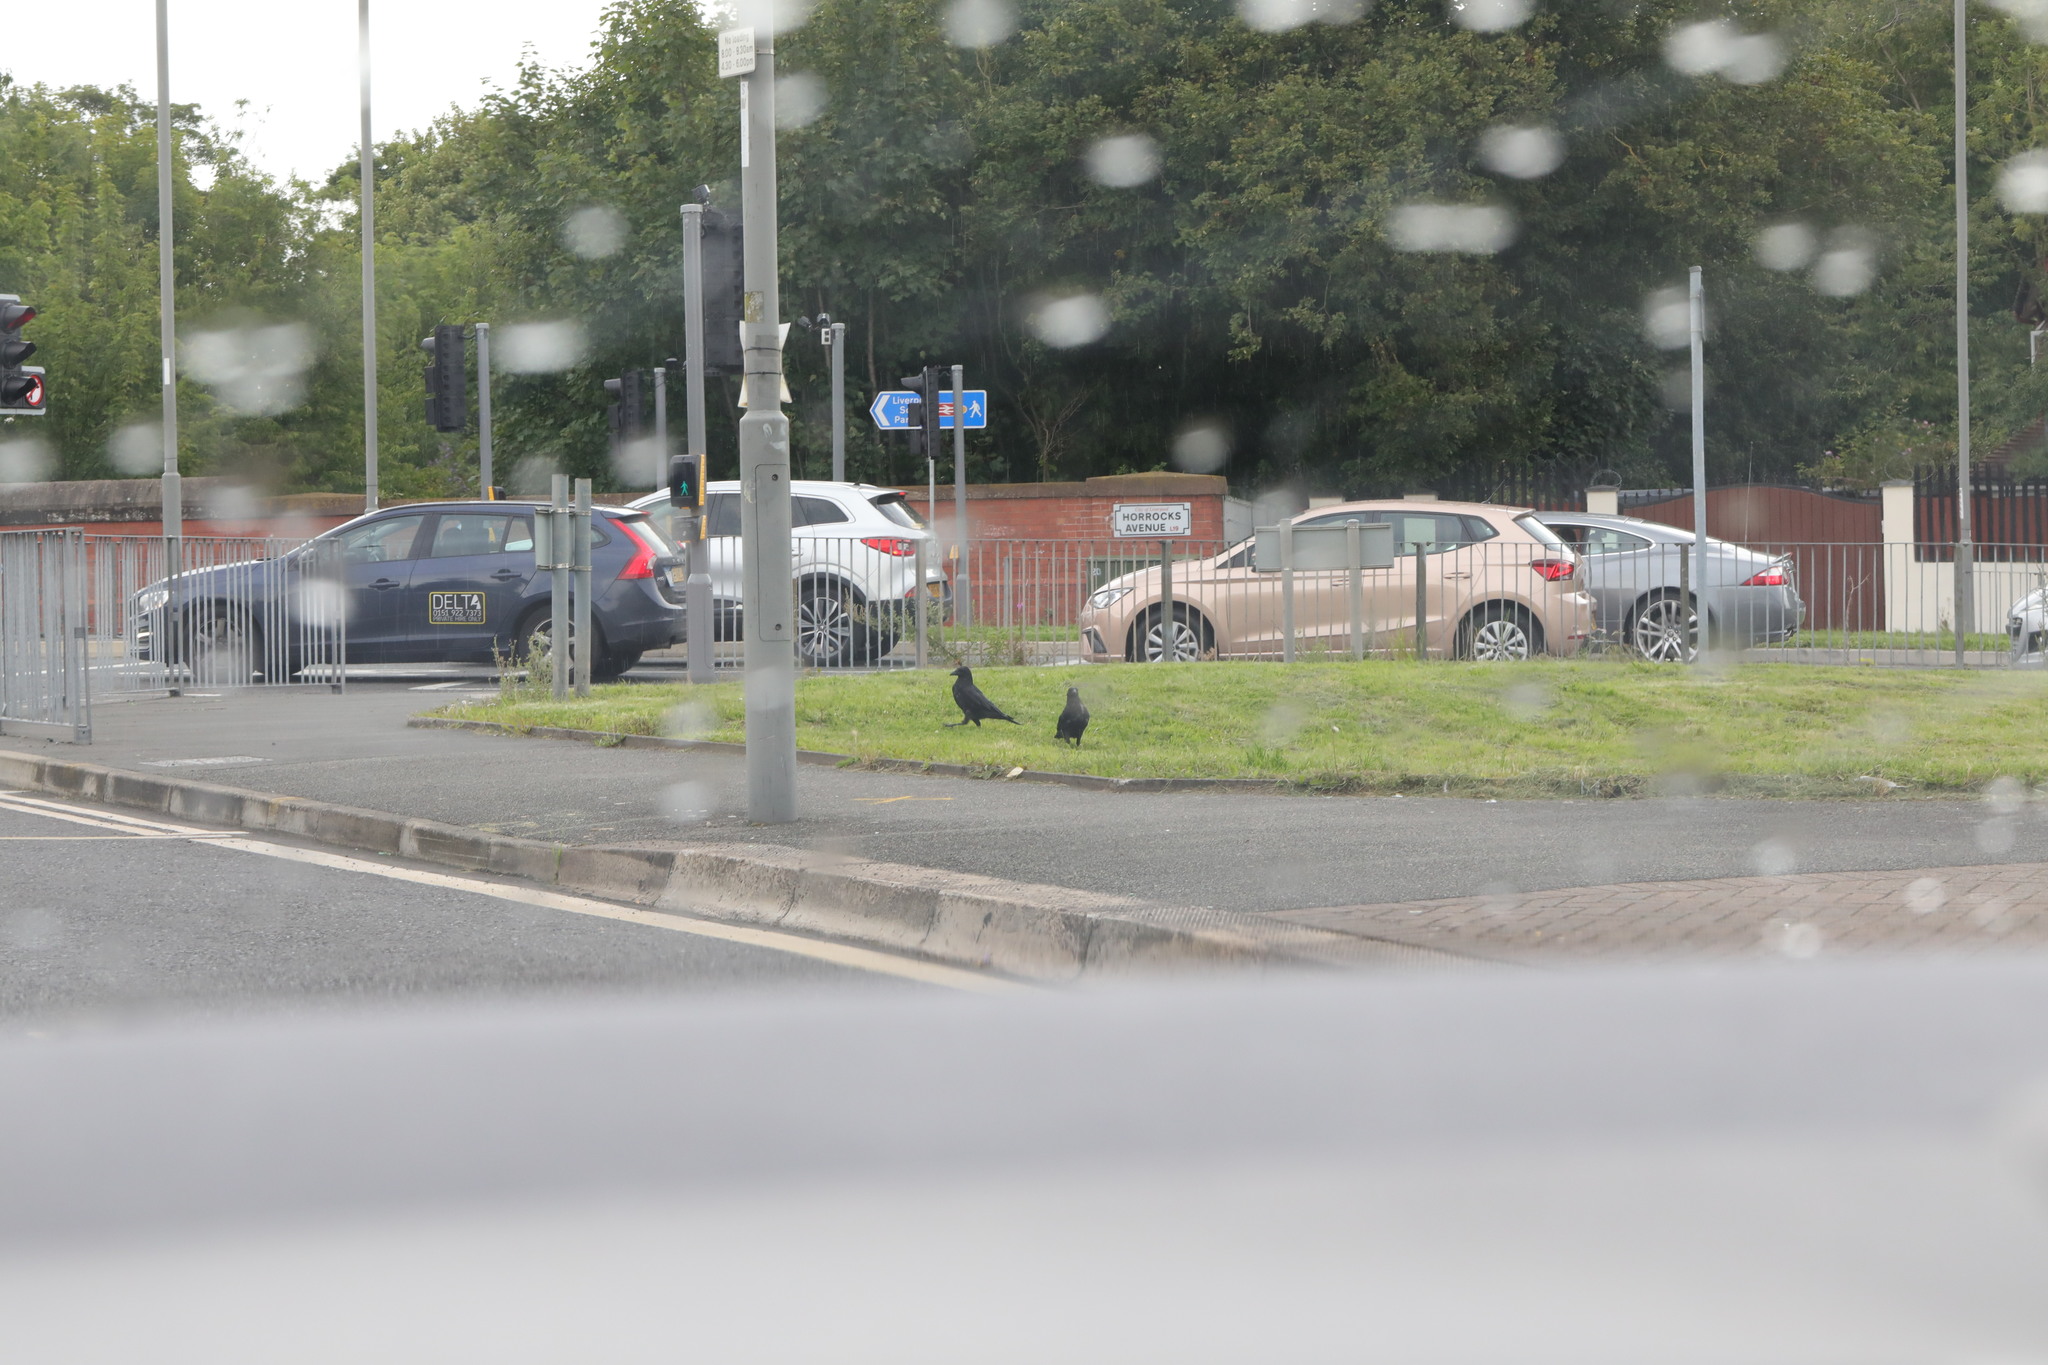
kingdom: Animalia
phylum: Chordata
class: Aves
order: Passeriformes
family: Corvidae
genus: Corvus
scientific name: Corvus corone
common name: Carrion crow
